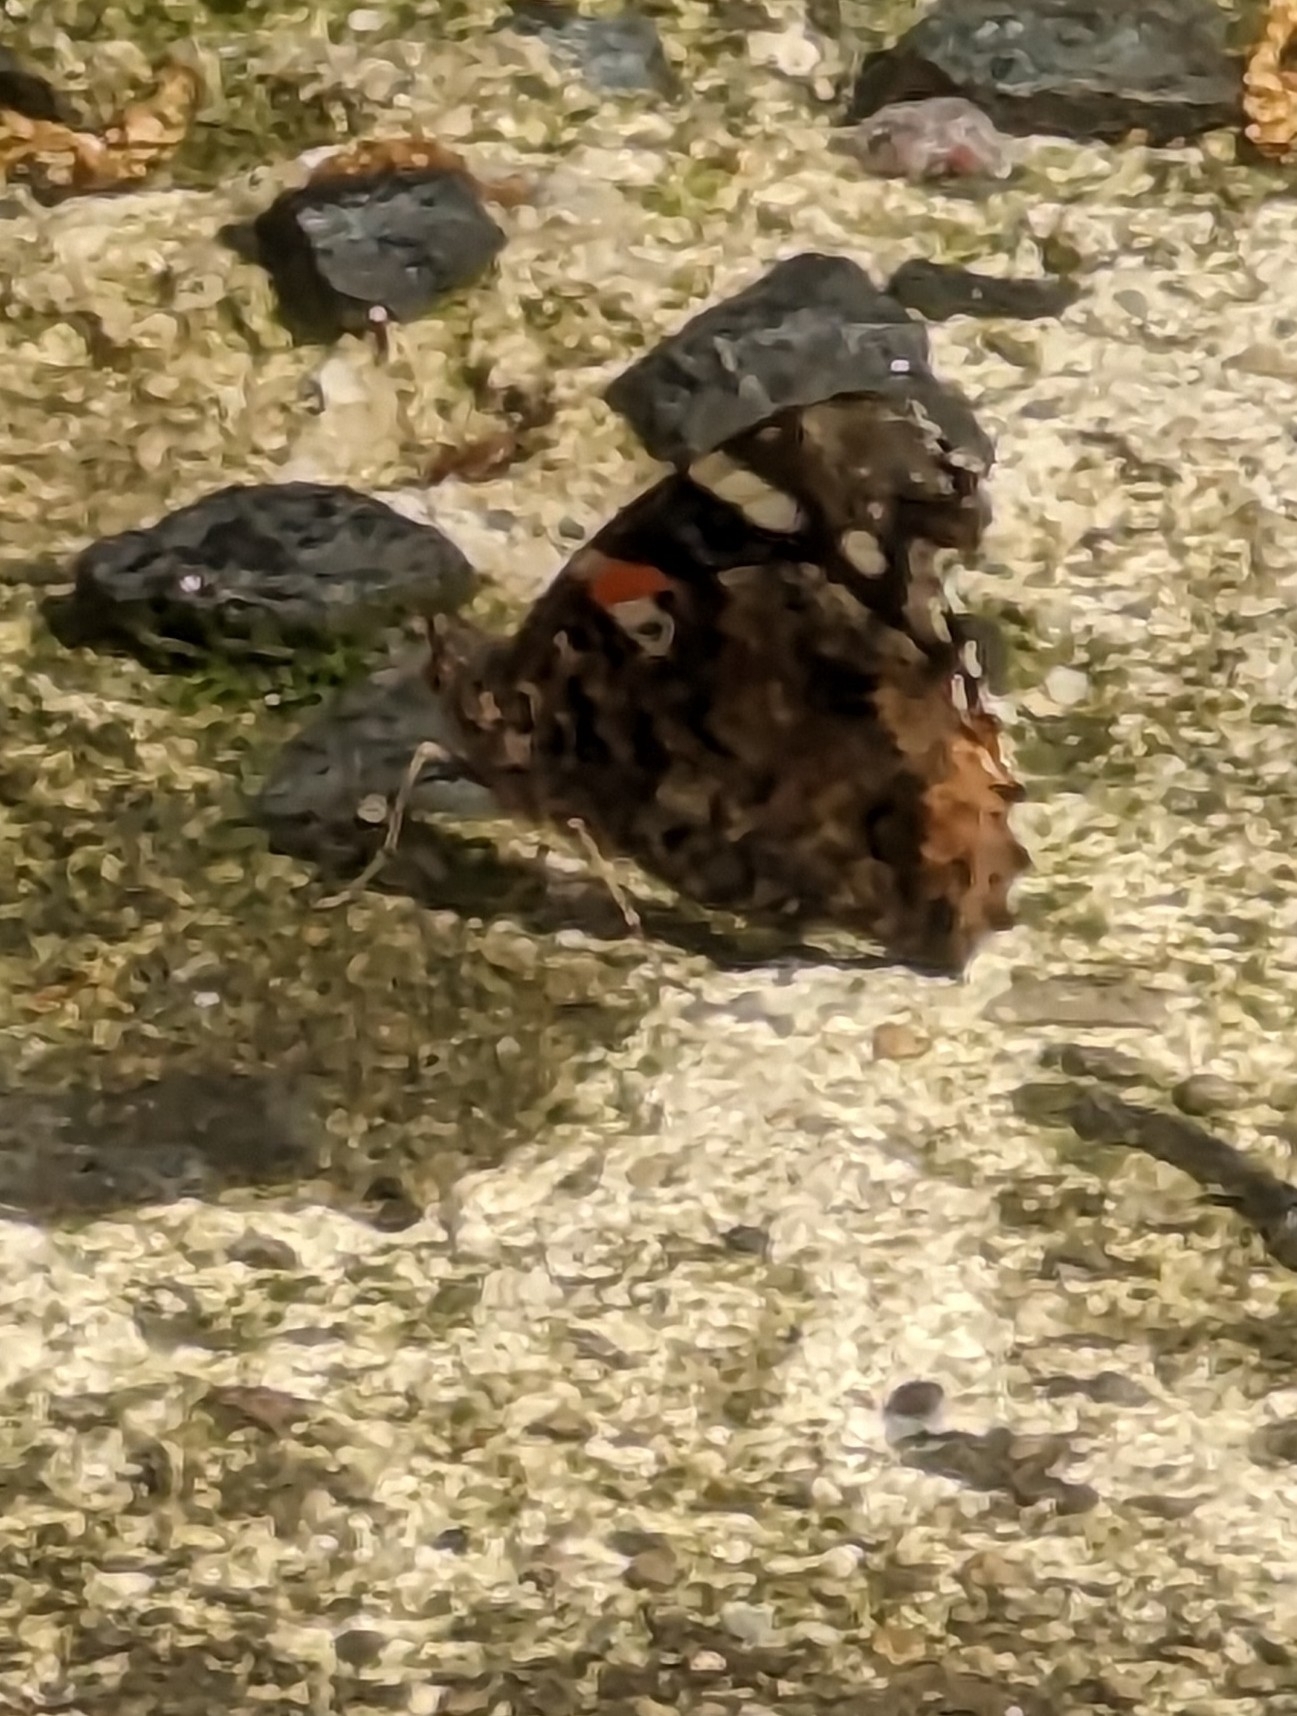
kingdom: Animalia
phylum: Arthropoda
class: Insecta
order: Lepidoptera
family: Nymphalidae
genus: Vanessa
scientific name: Vanessa atalanta
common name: Red admiral
